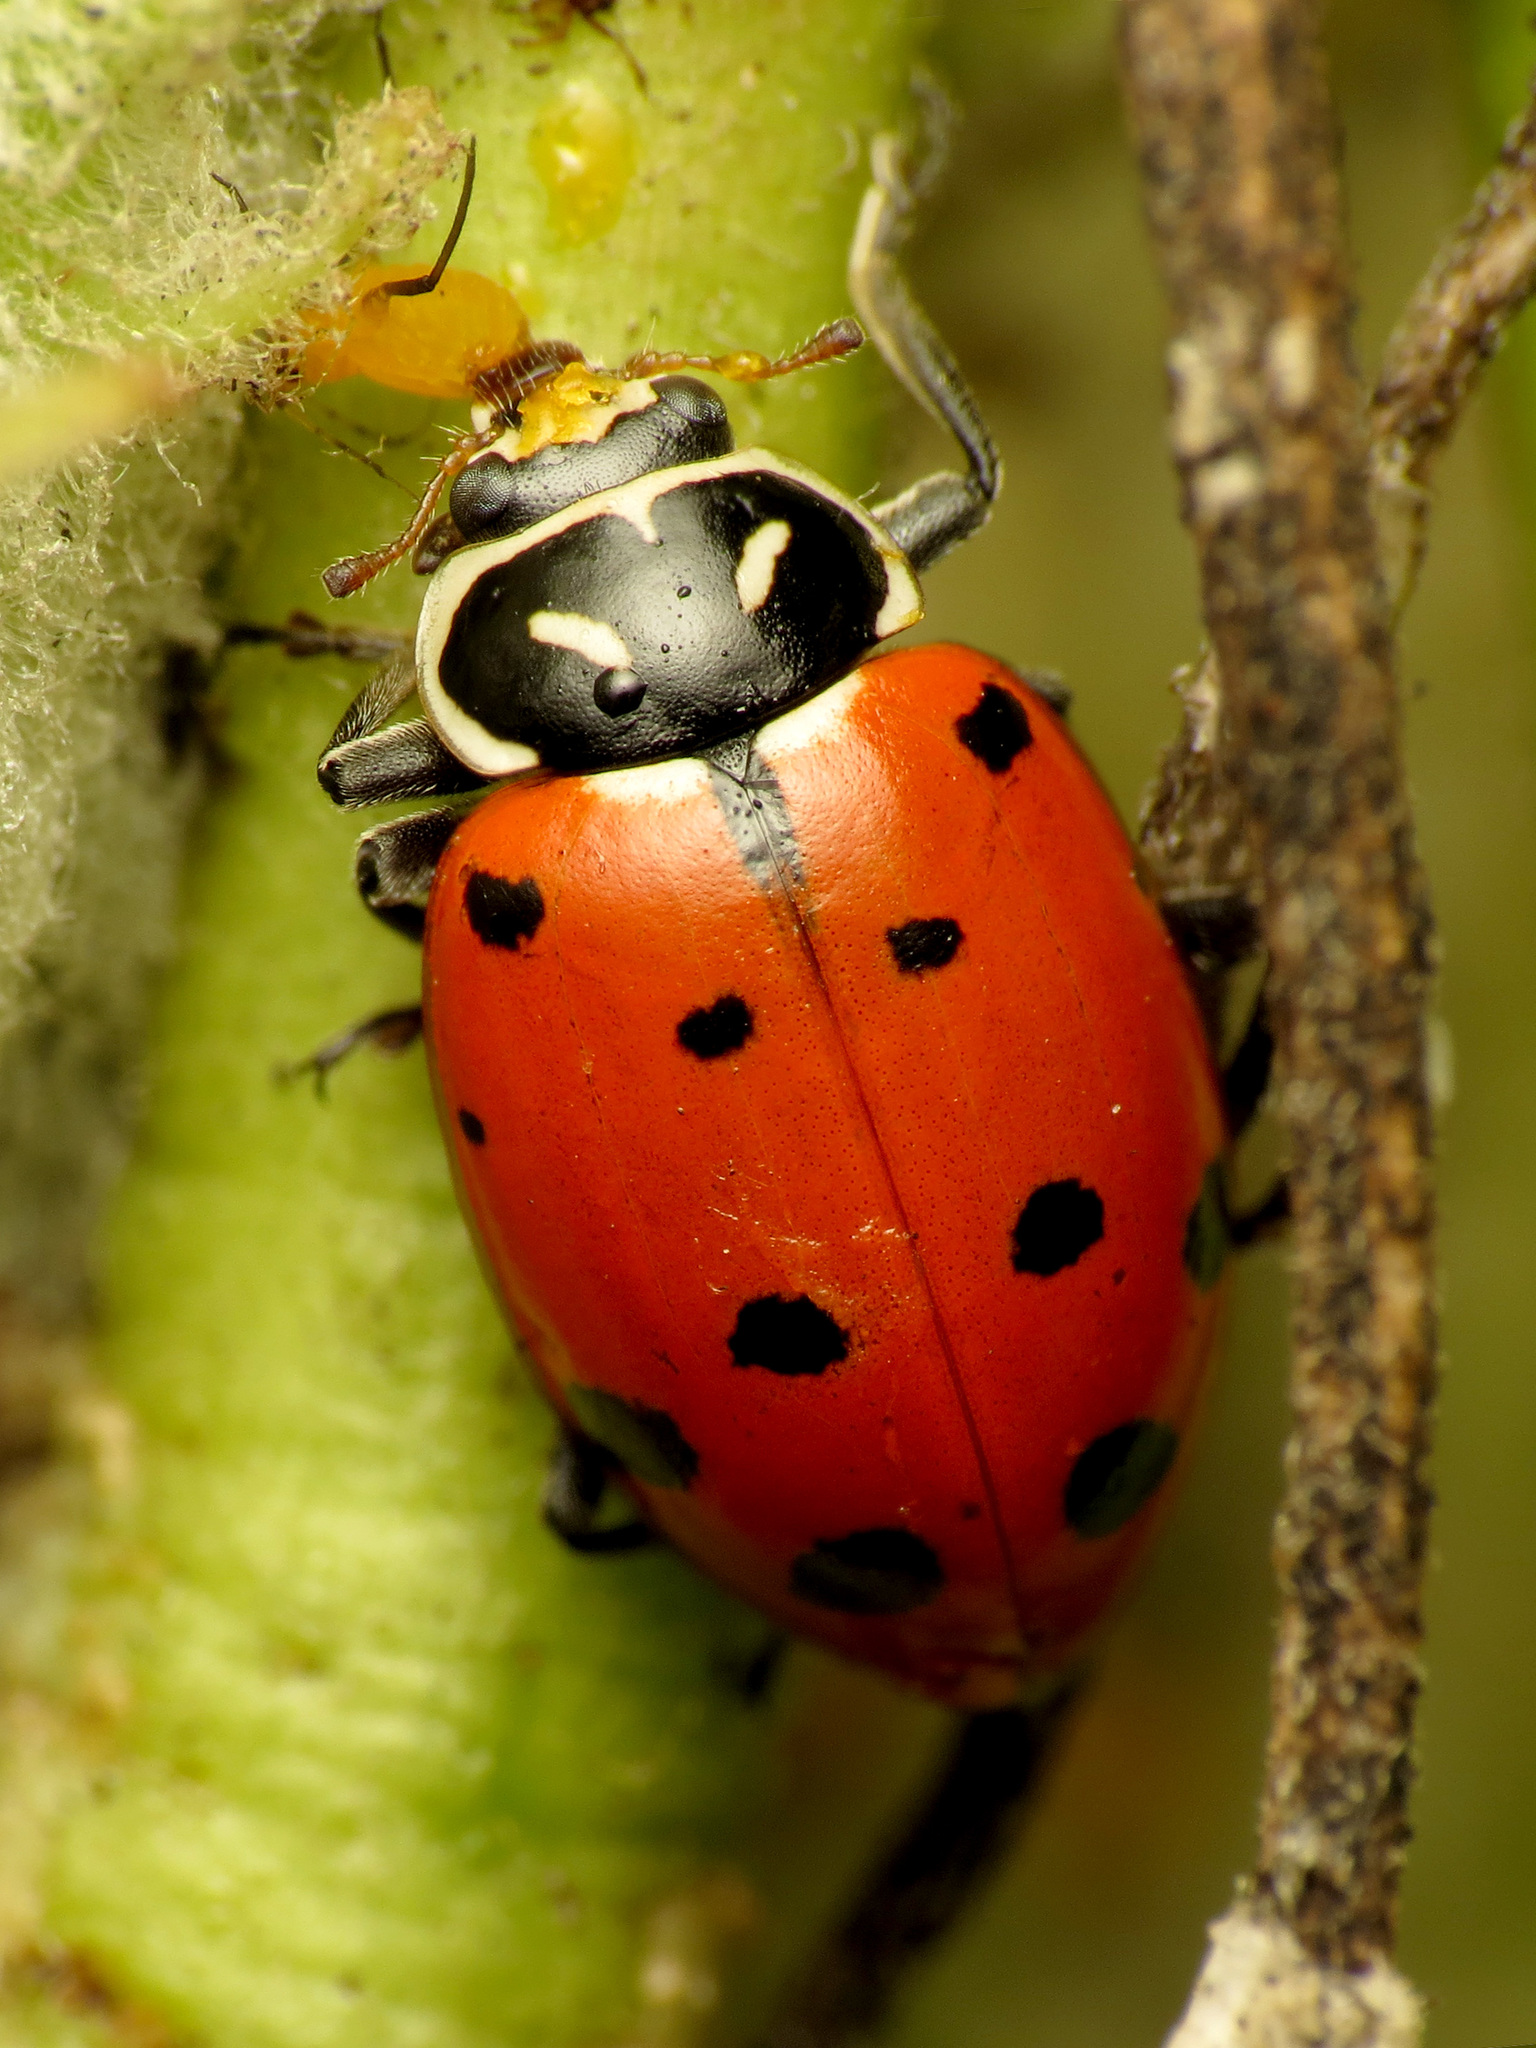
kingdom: Animalia
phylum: Arthropoda
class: Insecta
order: Coleoptera
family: Coccinellidae
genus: Hippodamia
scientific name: Hippodamia convergens
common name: Convergent lady beetle
